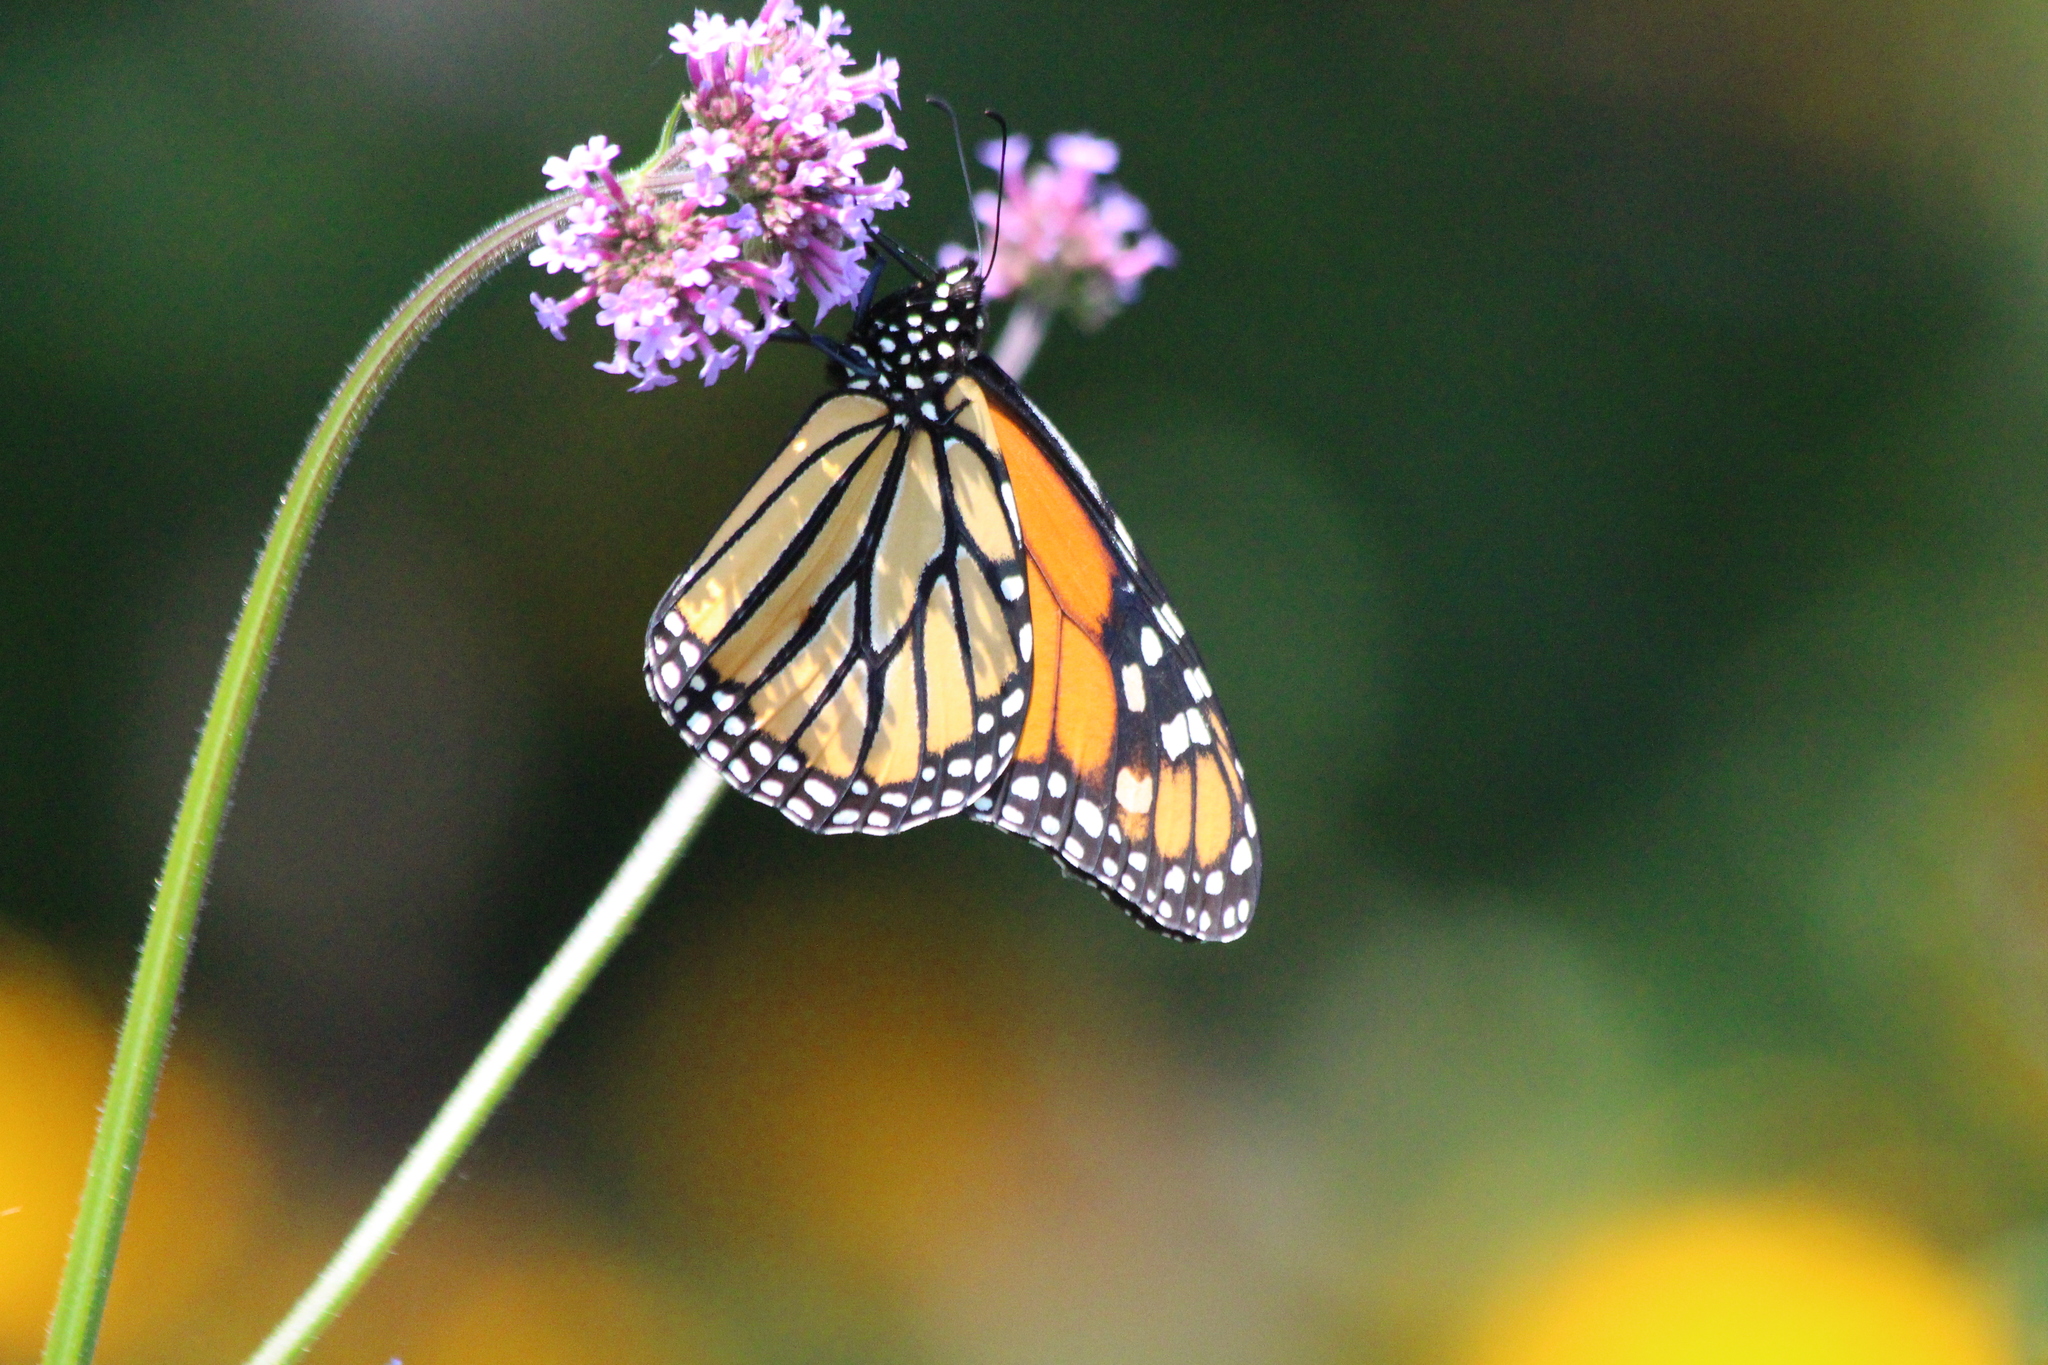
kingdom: Animalia
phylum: Arthropoda
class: Insecta
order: Lepidoptera
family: Nymphalidae
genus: Danaus
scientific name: Danaus plexippus
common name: Monarch
